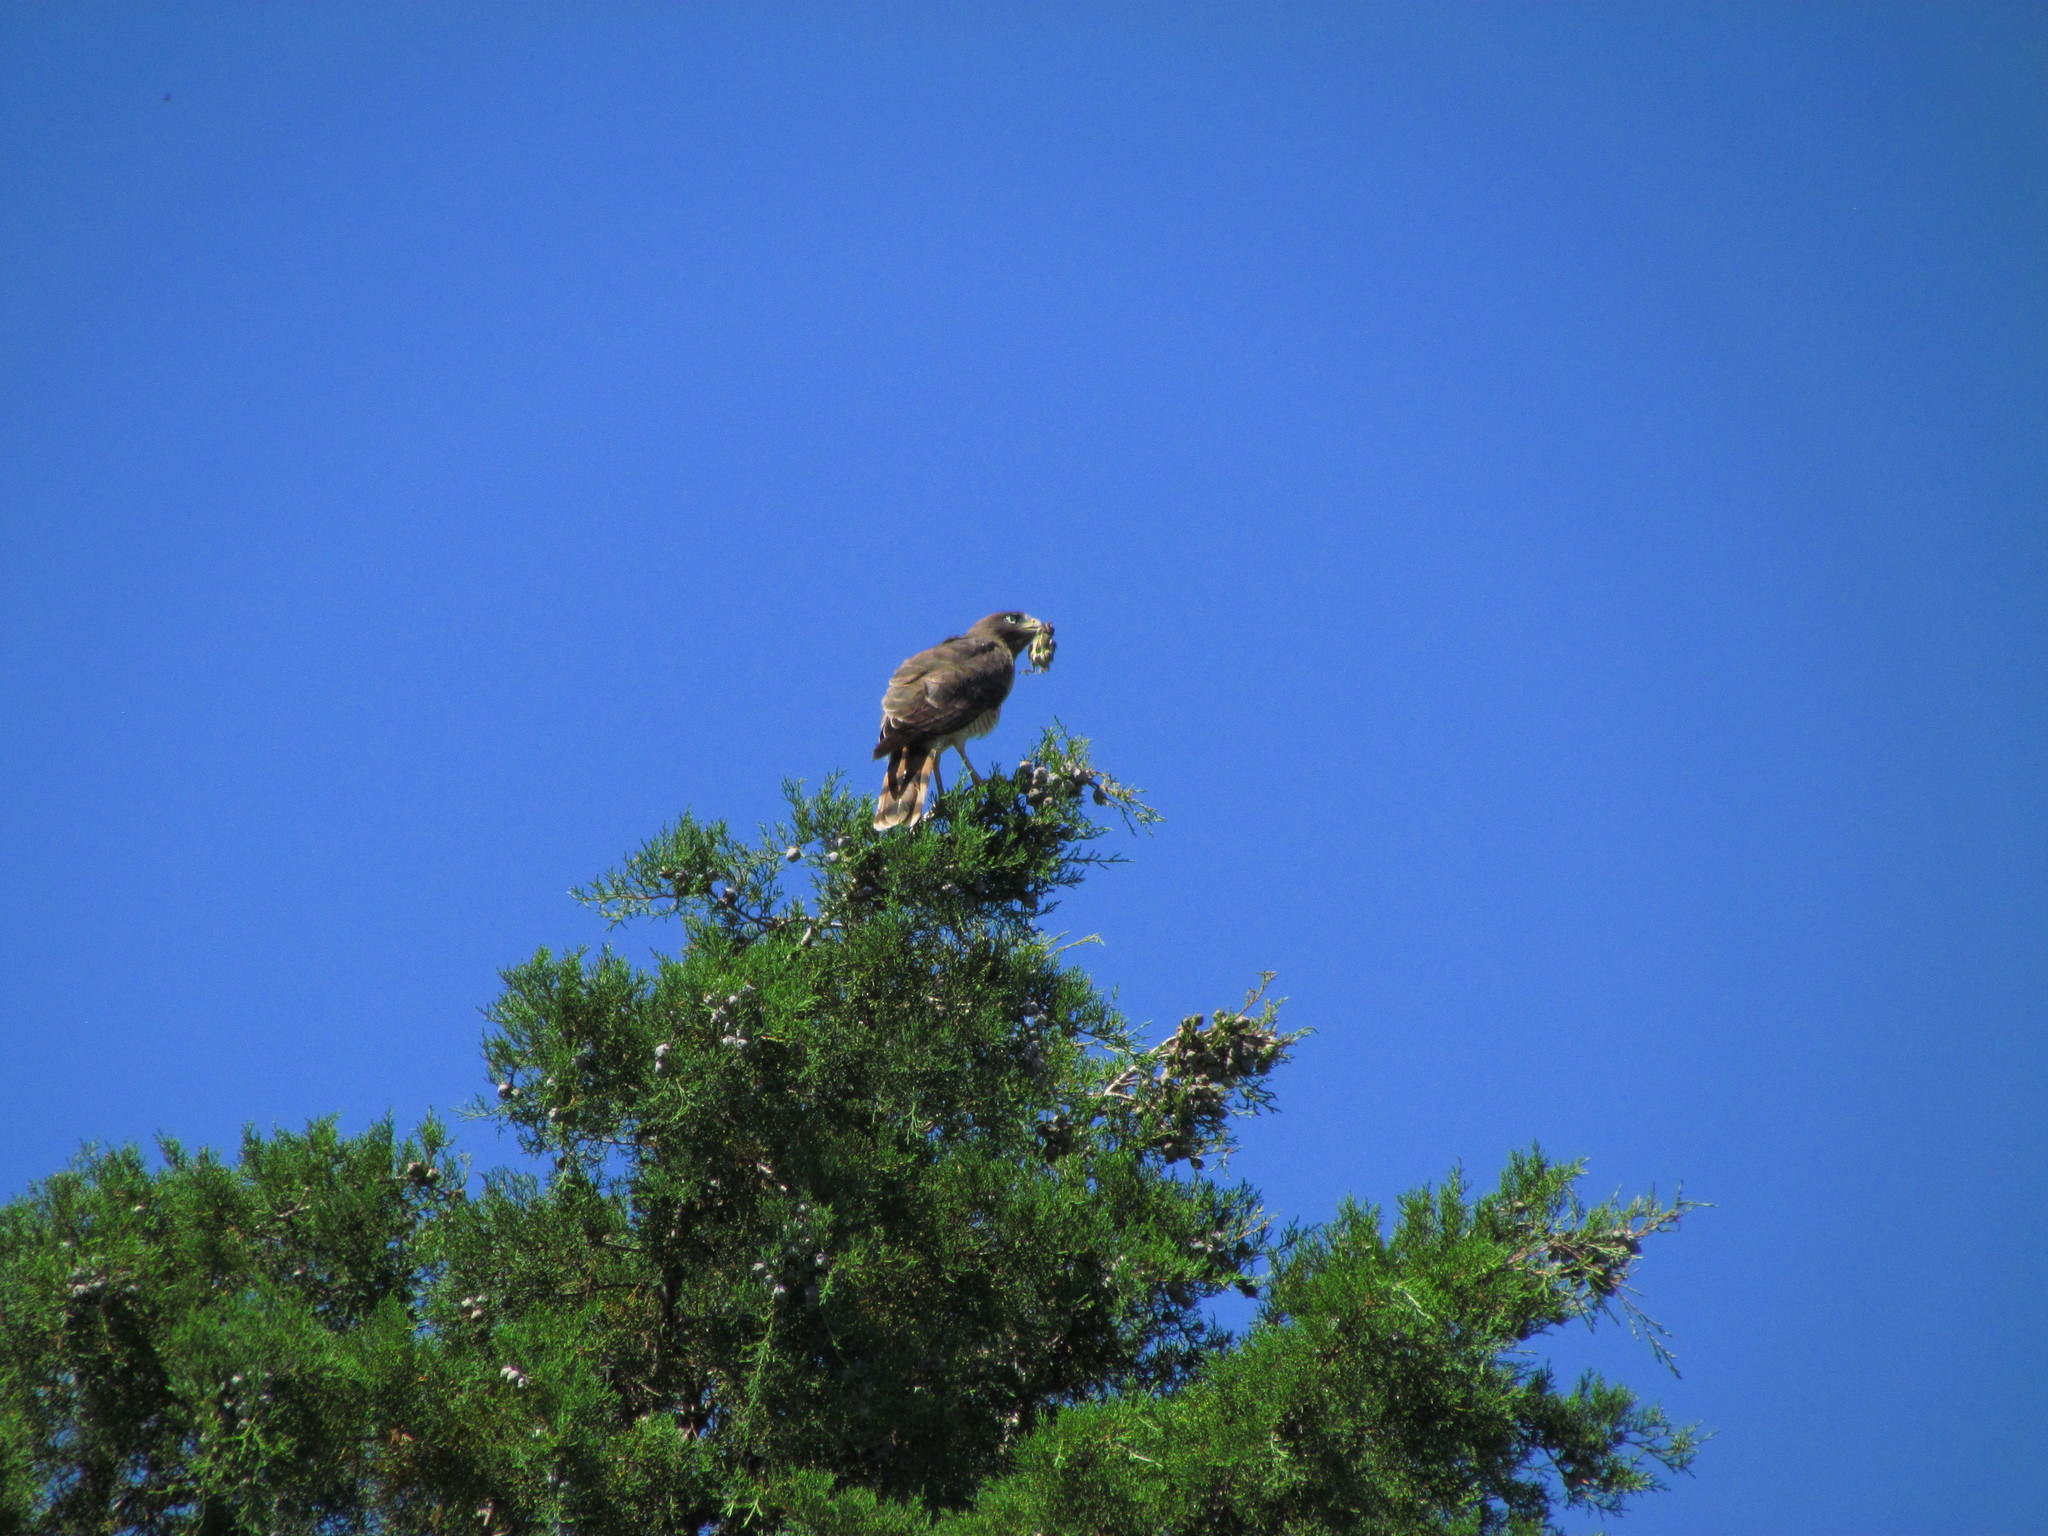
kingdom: Animalia
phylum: Chordata
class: Aves
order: Accipitriformes
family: Accipitridae
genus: Rupornis
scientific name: Rupornis magnirostris
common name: Roadside hawk
